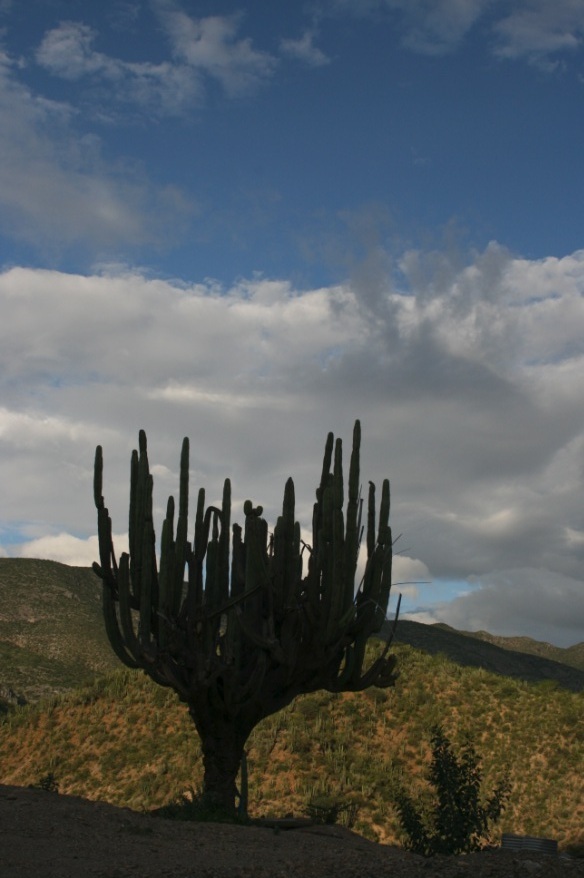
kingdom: Plantae
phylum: Tracheophyta
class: Magnoliopsida
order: Caryophyllales
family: Cactaceae
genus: Stenocereus
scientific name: Stenocereus dumortieri
